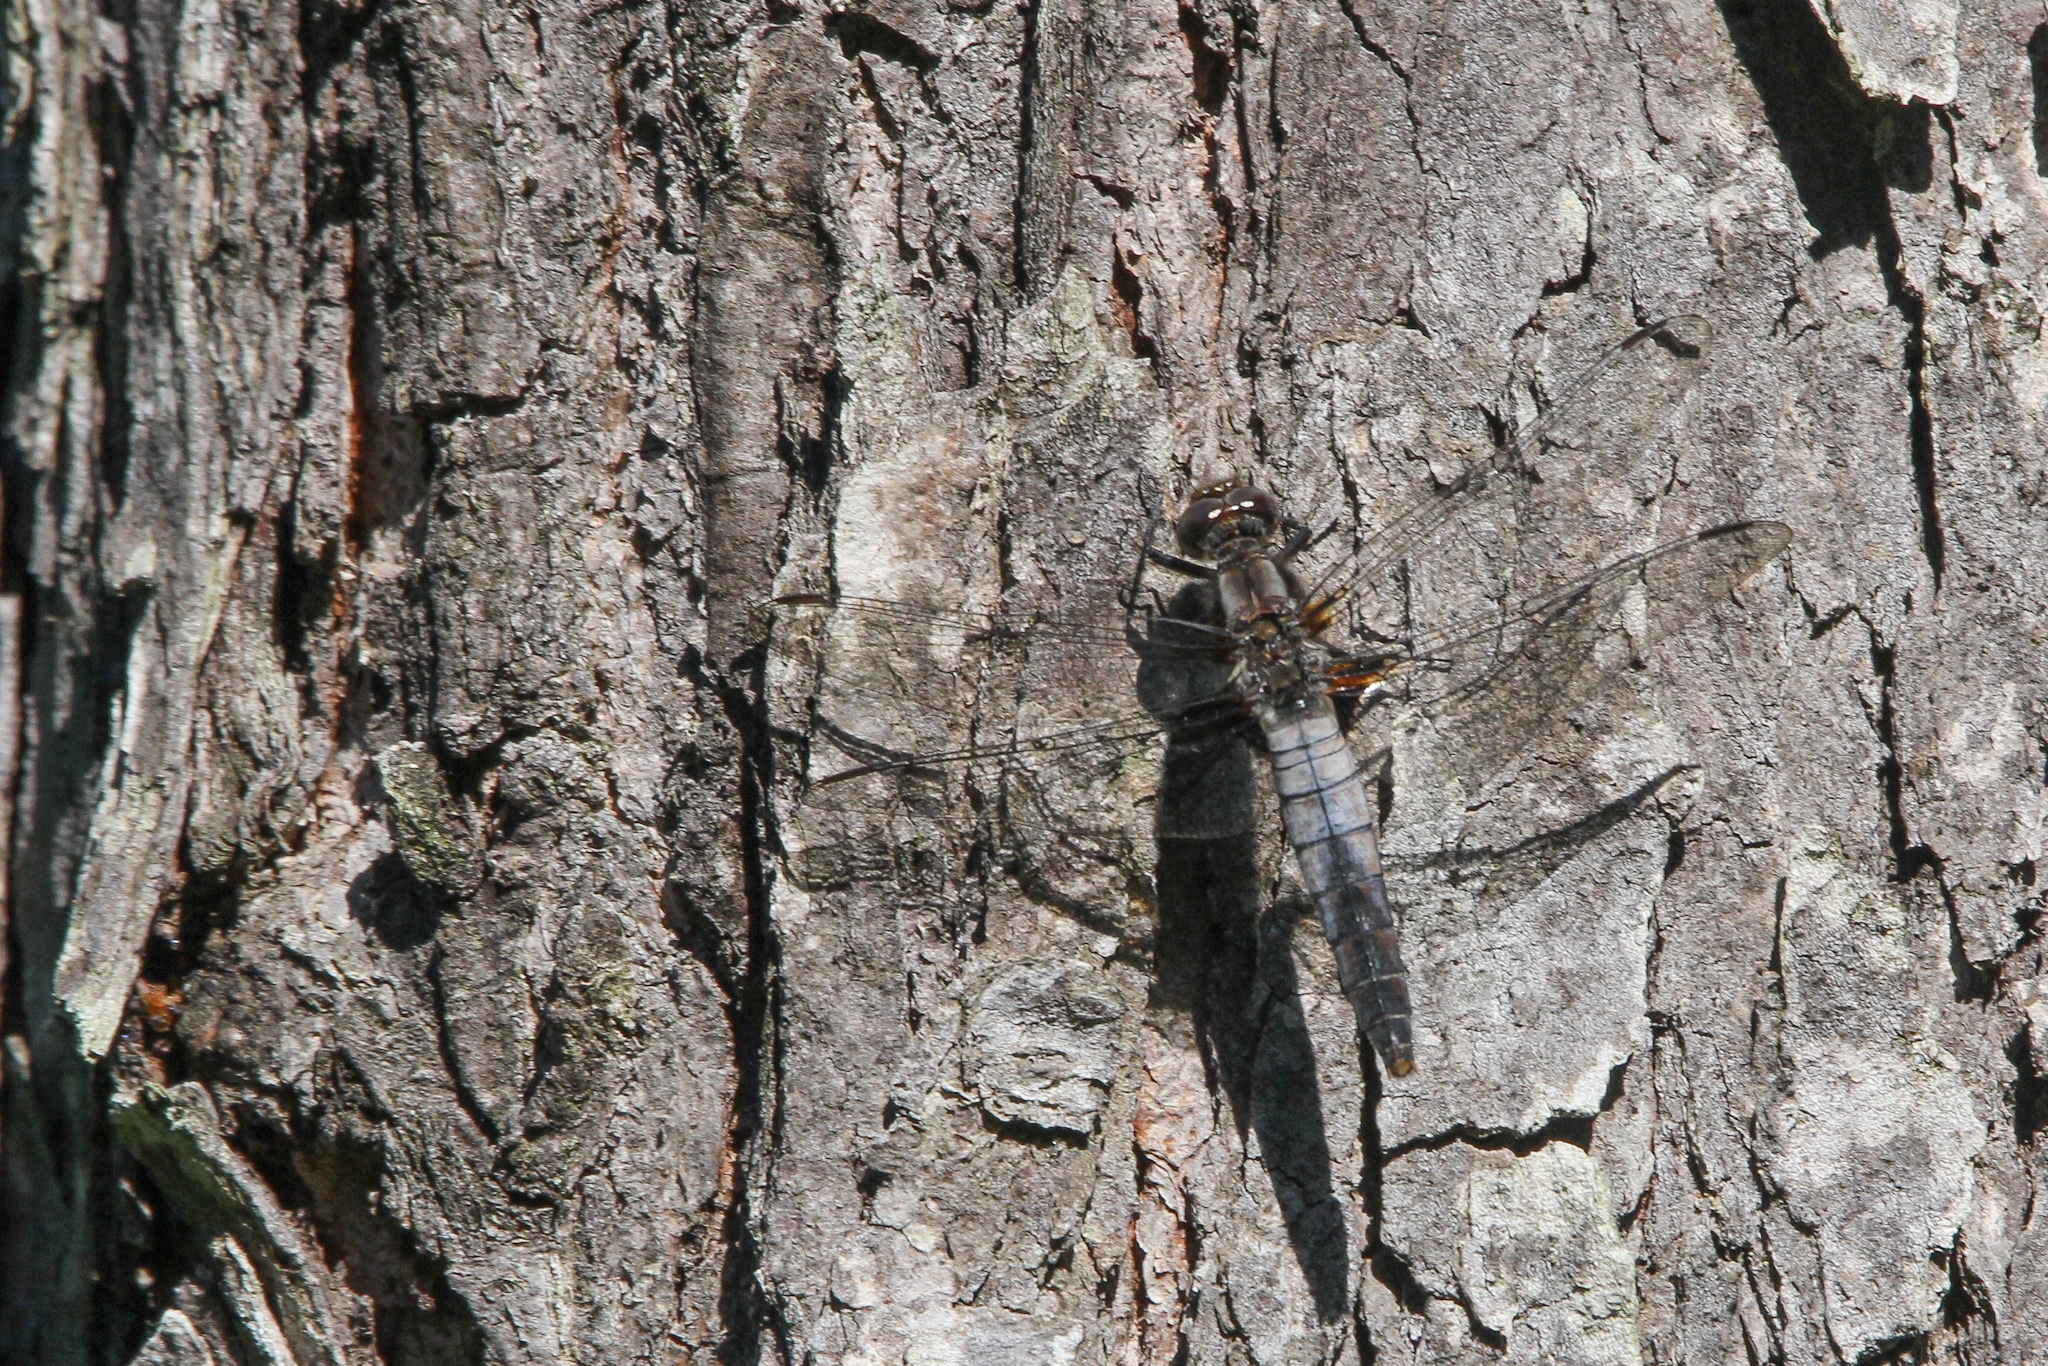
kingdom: Animalia
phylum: Arthropoda
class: Insecta
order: Odonata
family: Libellulidae
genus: Ladona
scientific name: Ladona julia
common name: Chalk-fronted corporal
